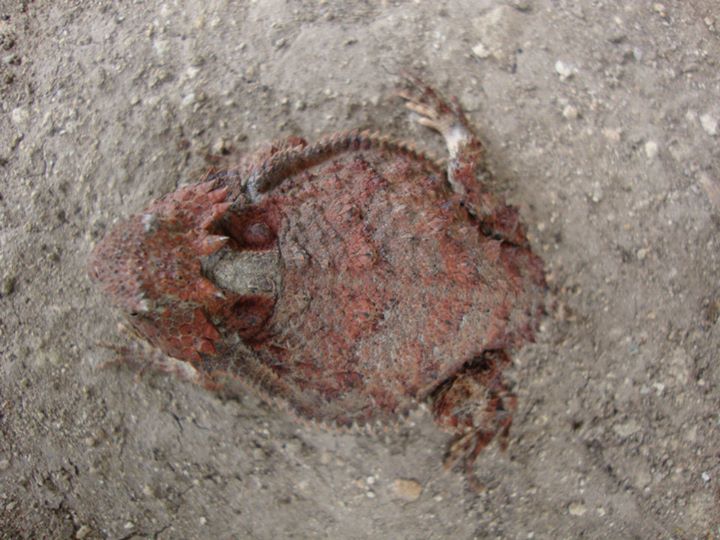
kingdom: Animalia
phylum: Chordata
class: Squamata
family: Phrynosomatidae
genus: Phrynosoma
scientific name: Phrynosoma braconnieri
